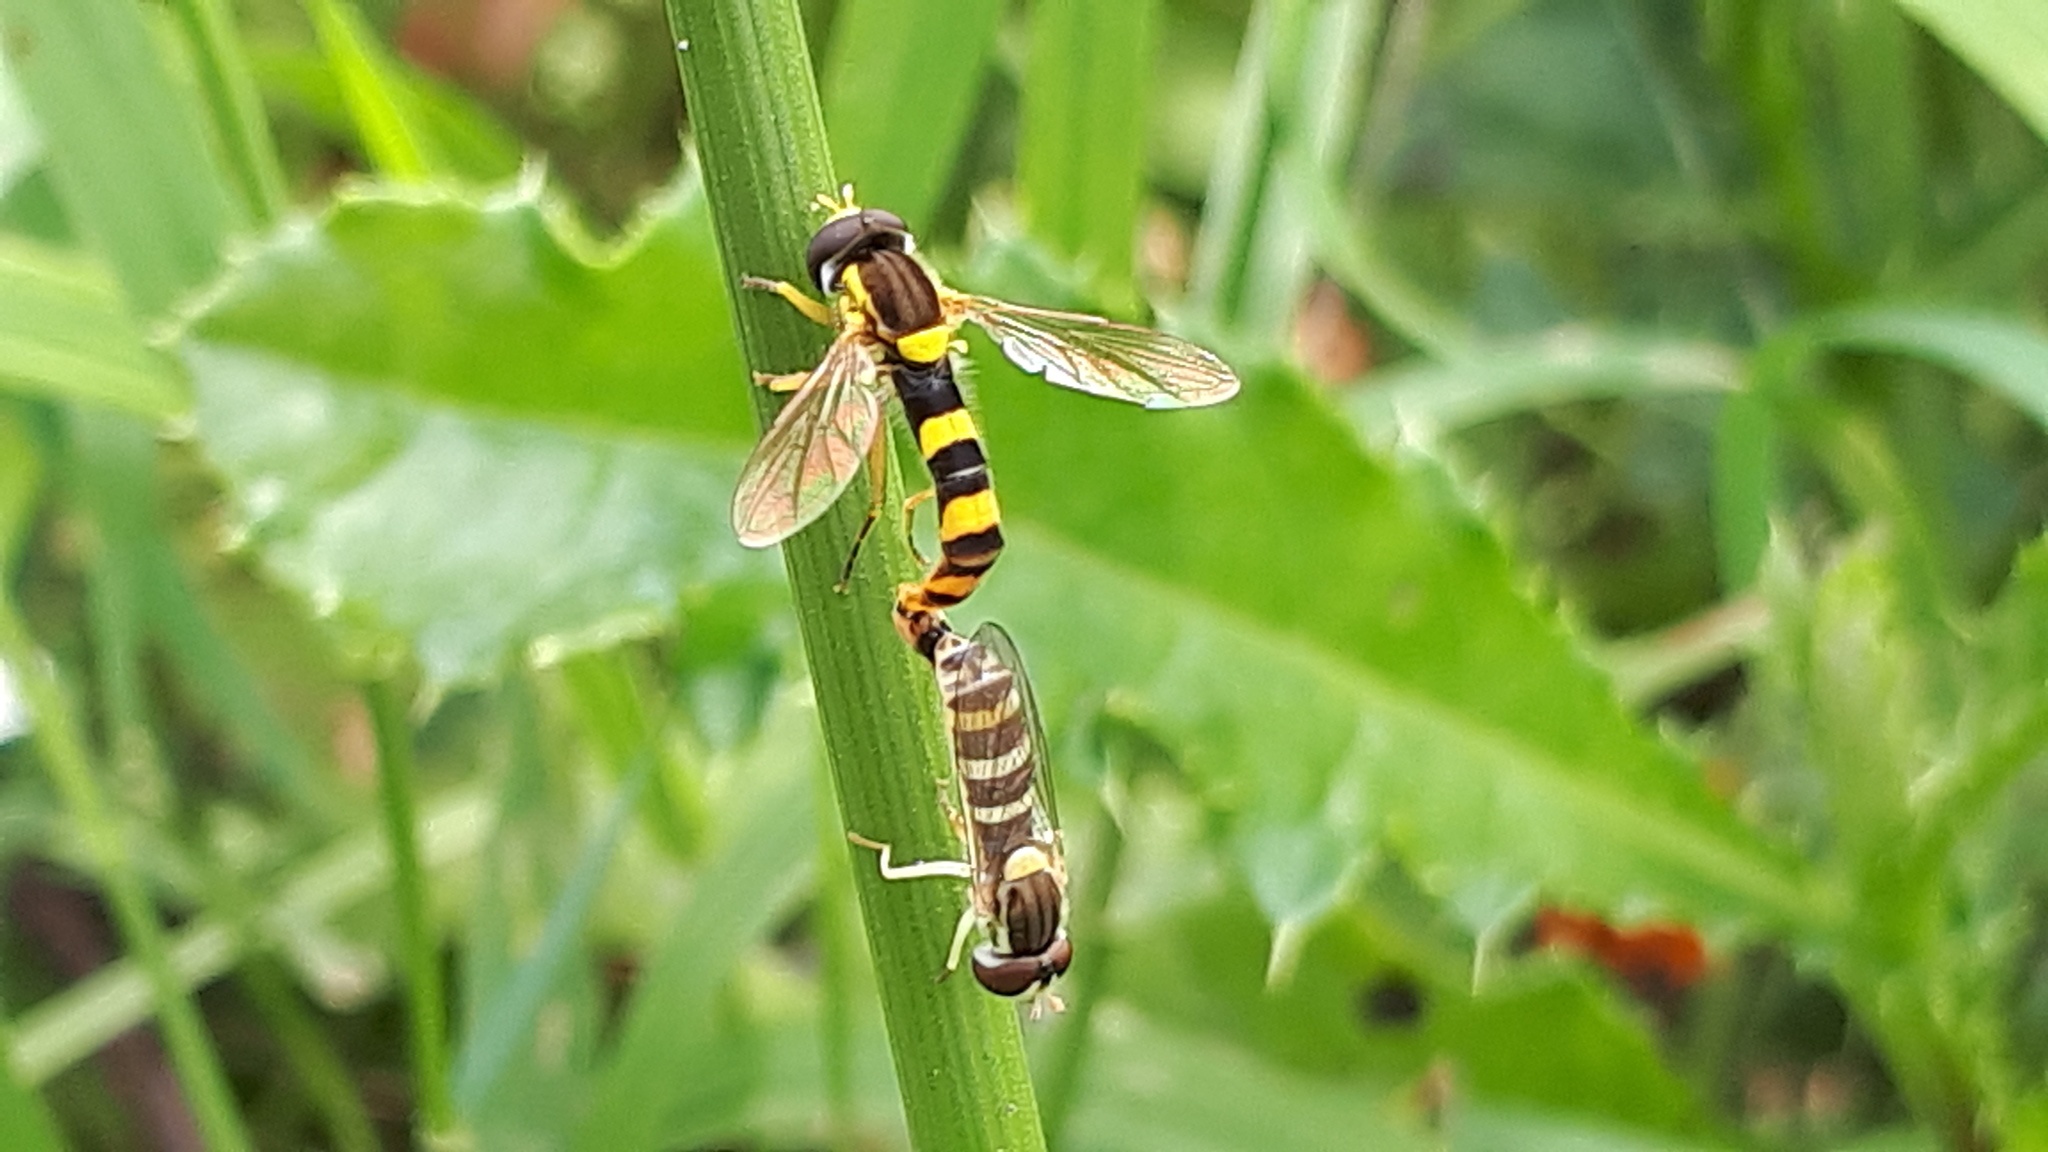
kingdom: Animalia
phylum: Arthropoda
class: Insecta
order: Diptera
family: Syrphidae
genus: Sphaerophoria
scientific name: Sphaerophoria scripta
